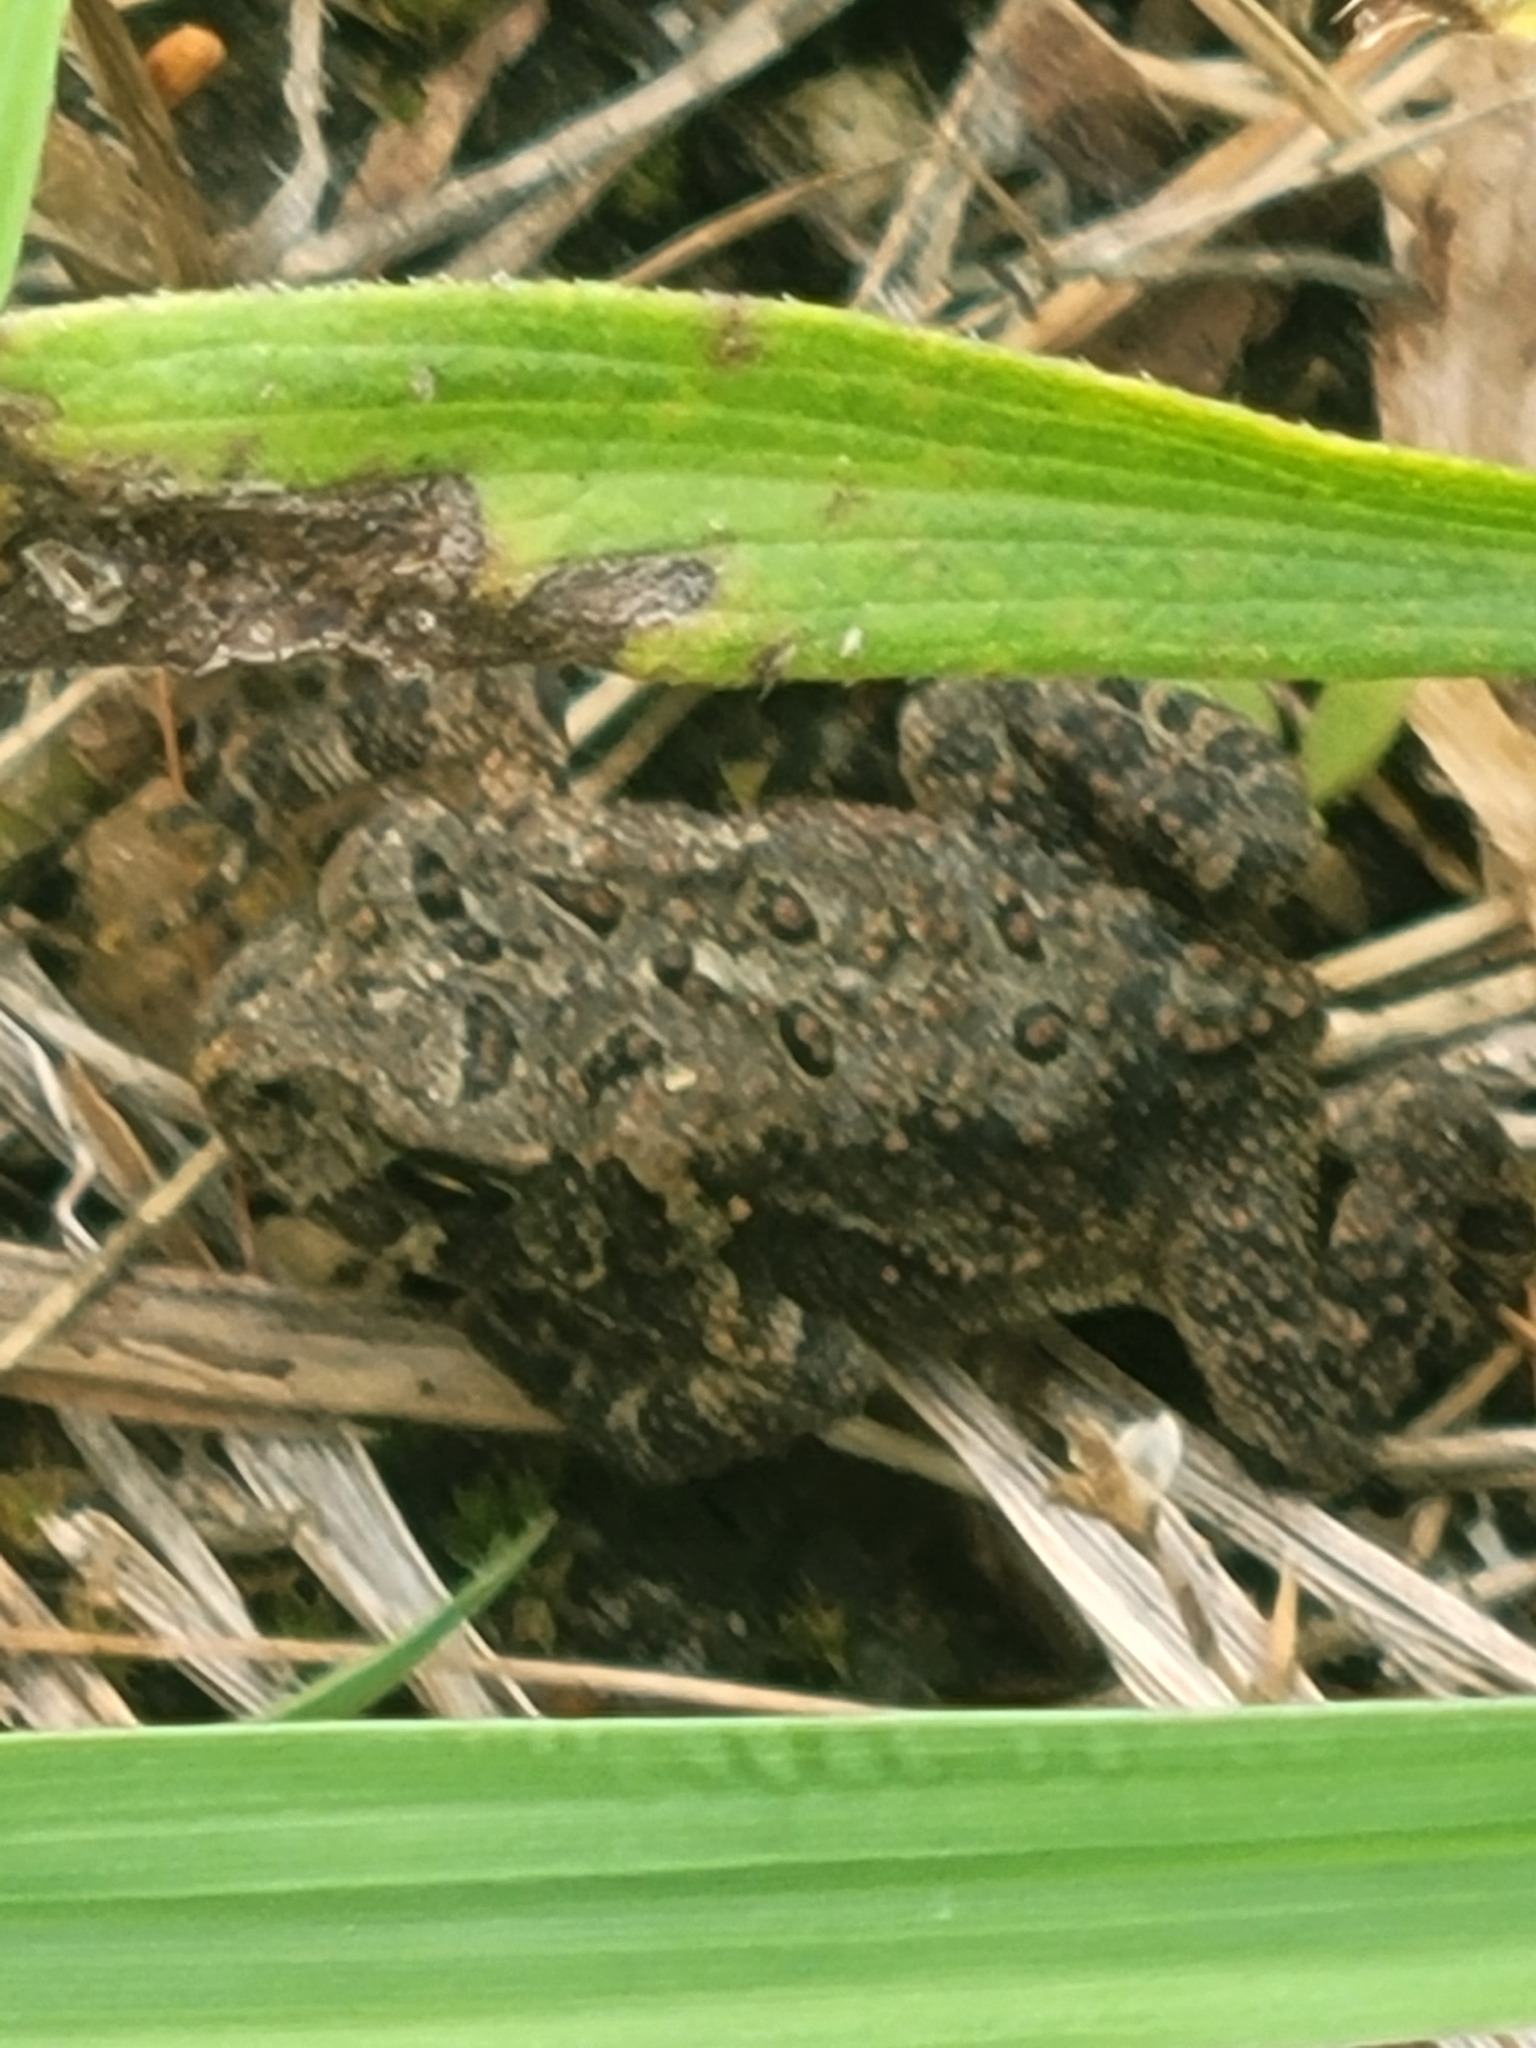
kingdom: Animalia
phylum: Chordata
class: Amphibia
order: Anura
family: Bufonidae
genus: Anaxyrus
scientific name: Anaxyrus americanus
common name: American toad
